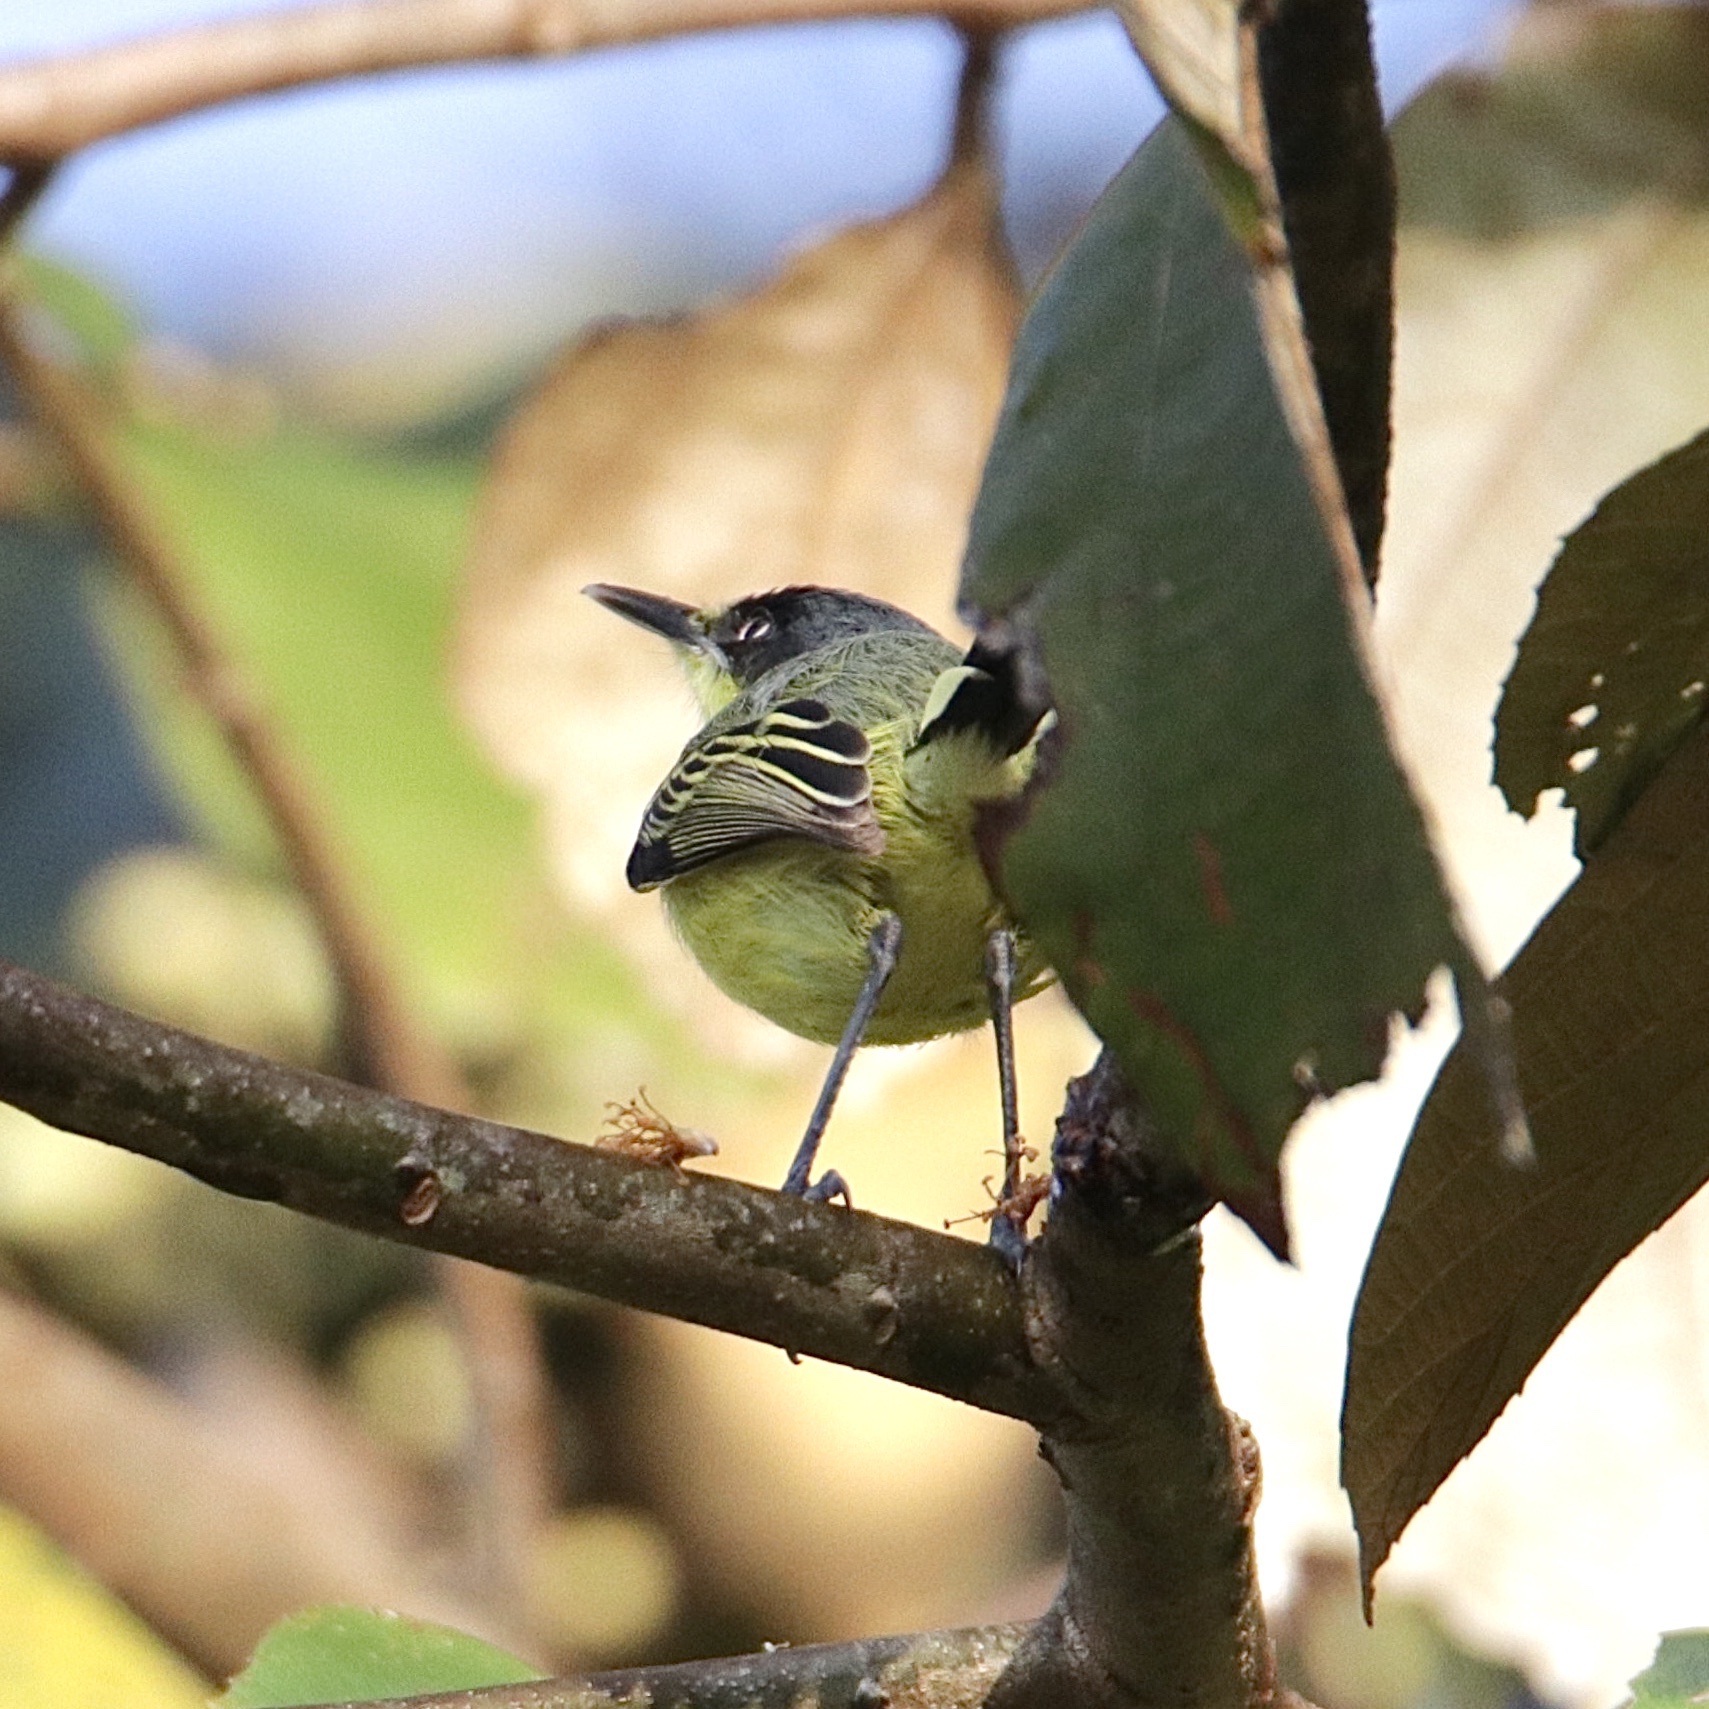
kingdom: Animalia
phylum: Chordata
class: Aves
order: Passeriformes
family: Tyrannidae
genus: Todirostrum
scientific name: Todirostrum cinereum
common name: Common tody-flycatcher
